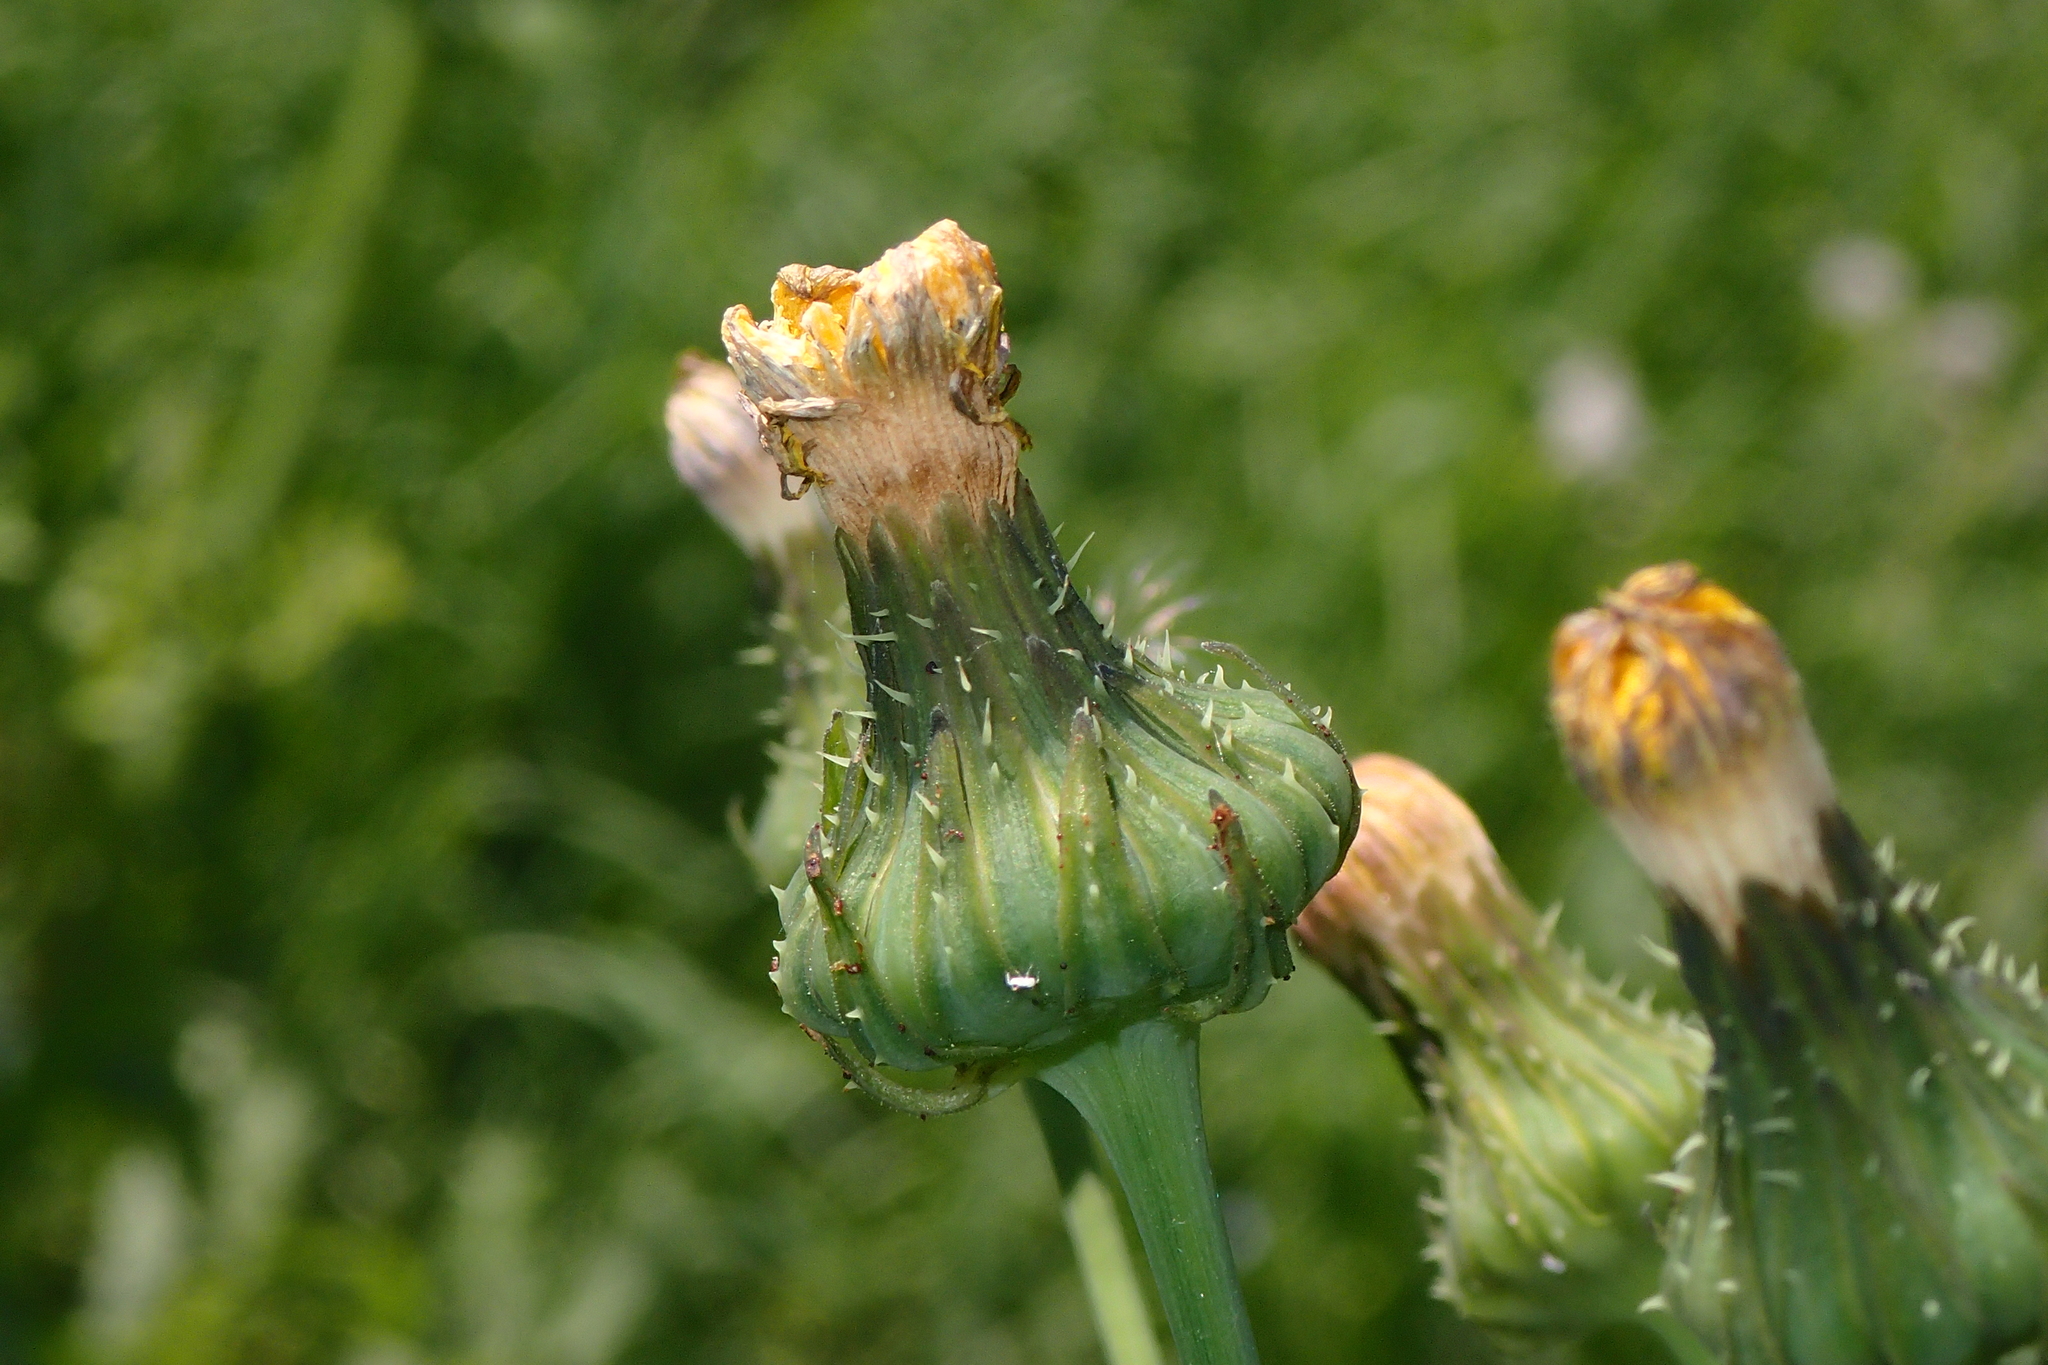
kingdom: Plantae
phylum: Tracheophyta
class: Magnoliopsida
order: Asterales
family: Asteraceae
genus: Sonchus
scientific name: Sonchus asper
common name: Prickly sow-thistle
